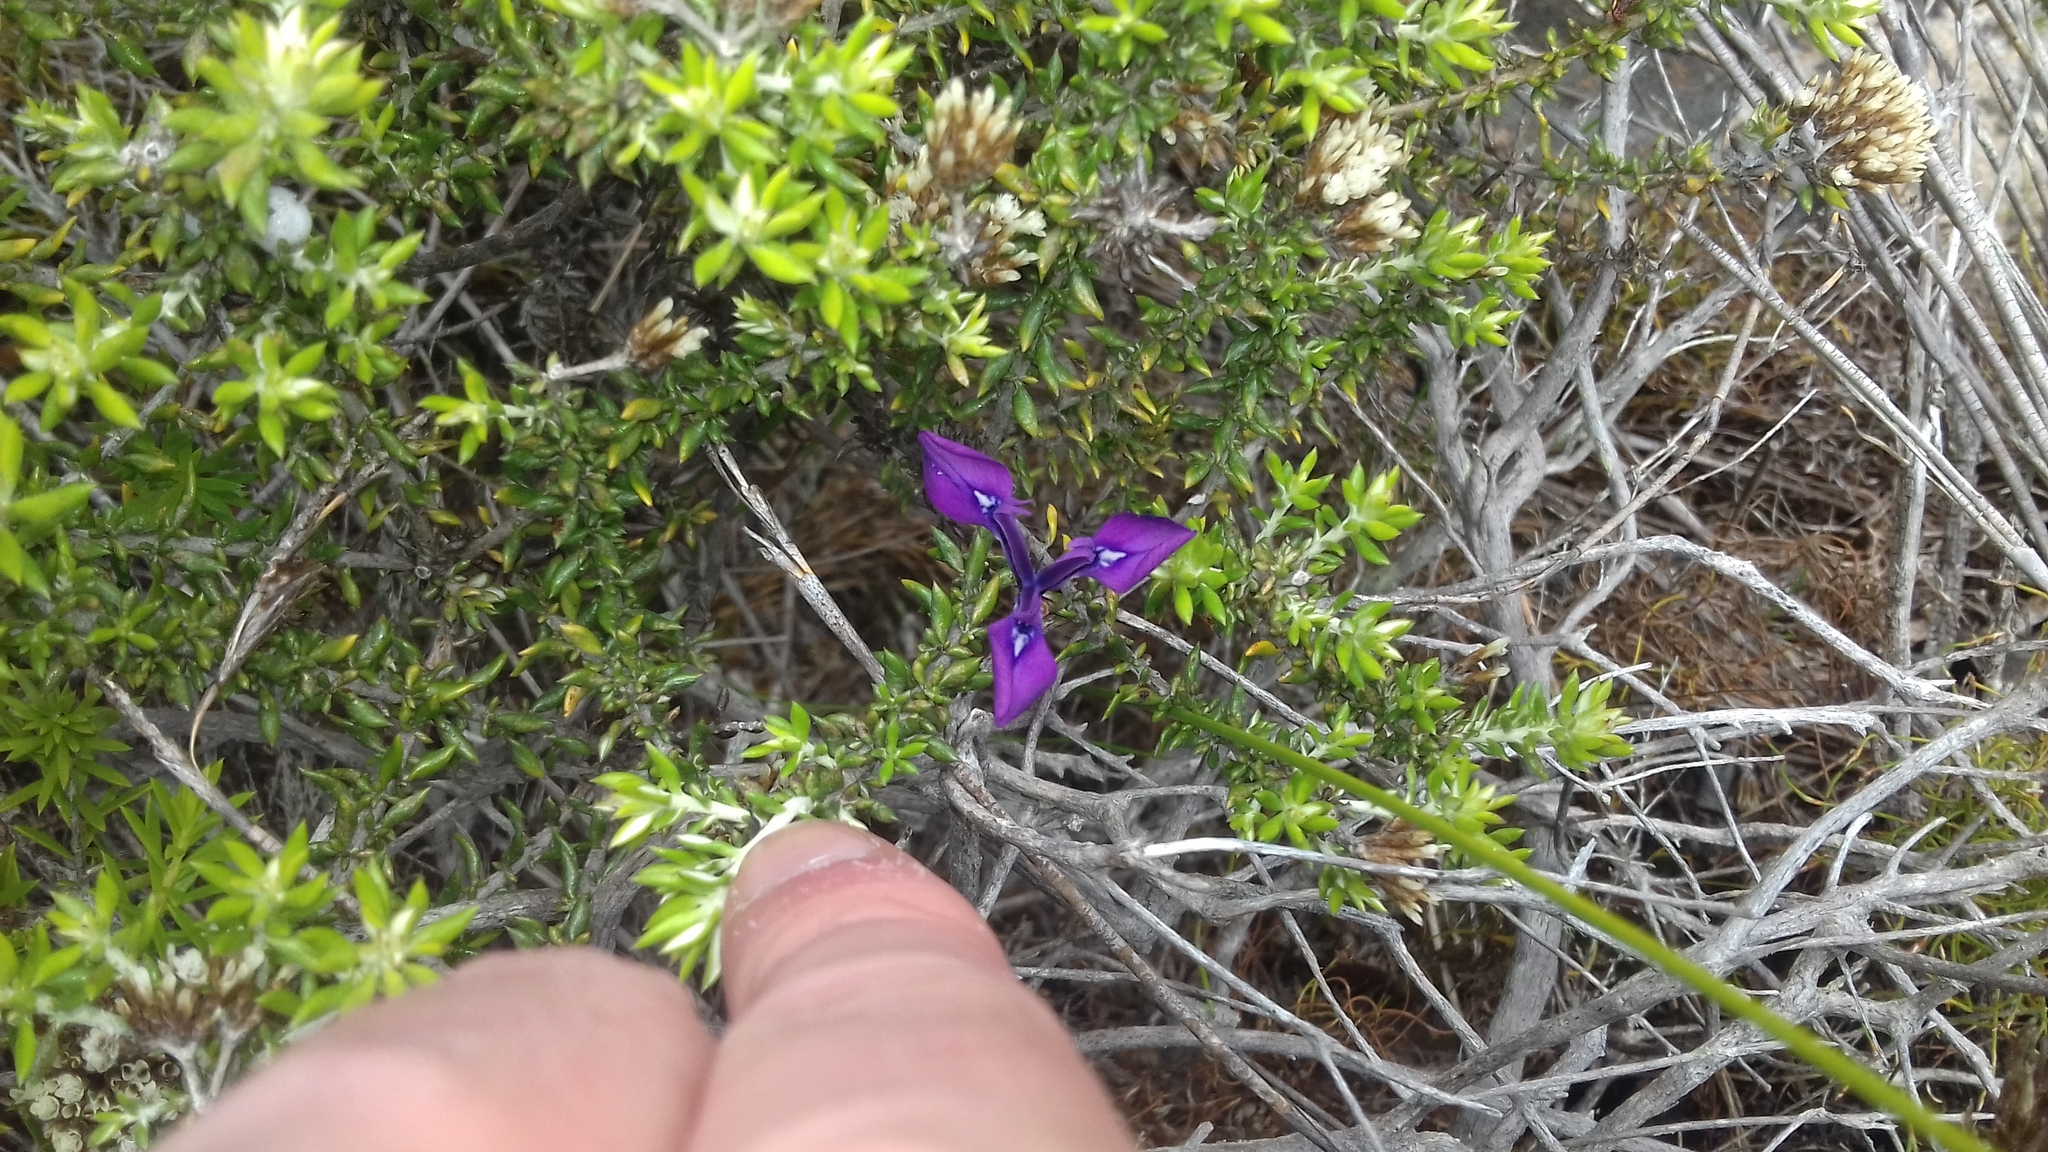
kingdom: Plantae
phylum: Tracheophyta
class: Liliopsida
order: Asparagales
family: Iridaceae
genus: Moraea
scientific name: Moraea tripetala
